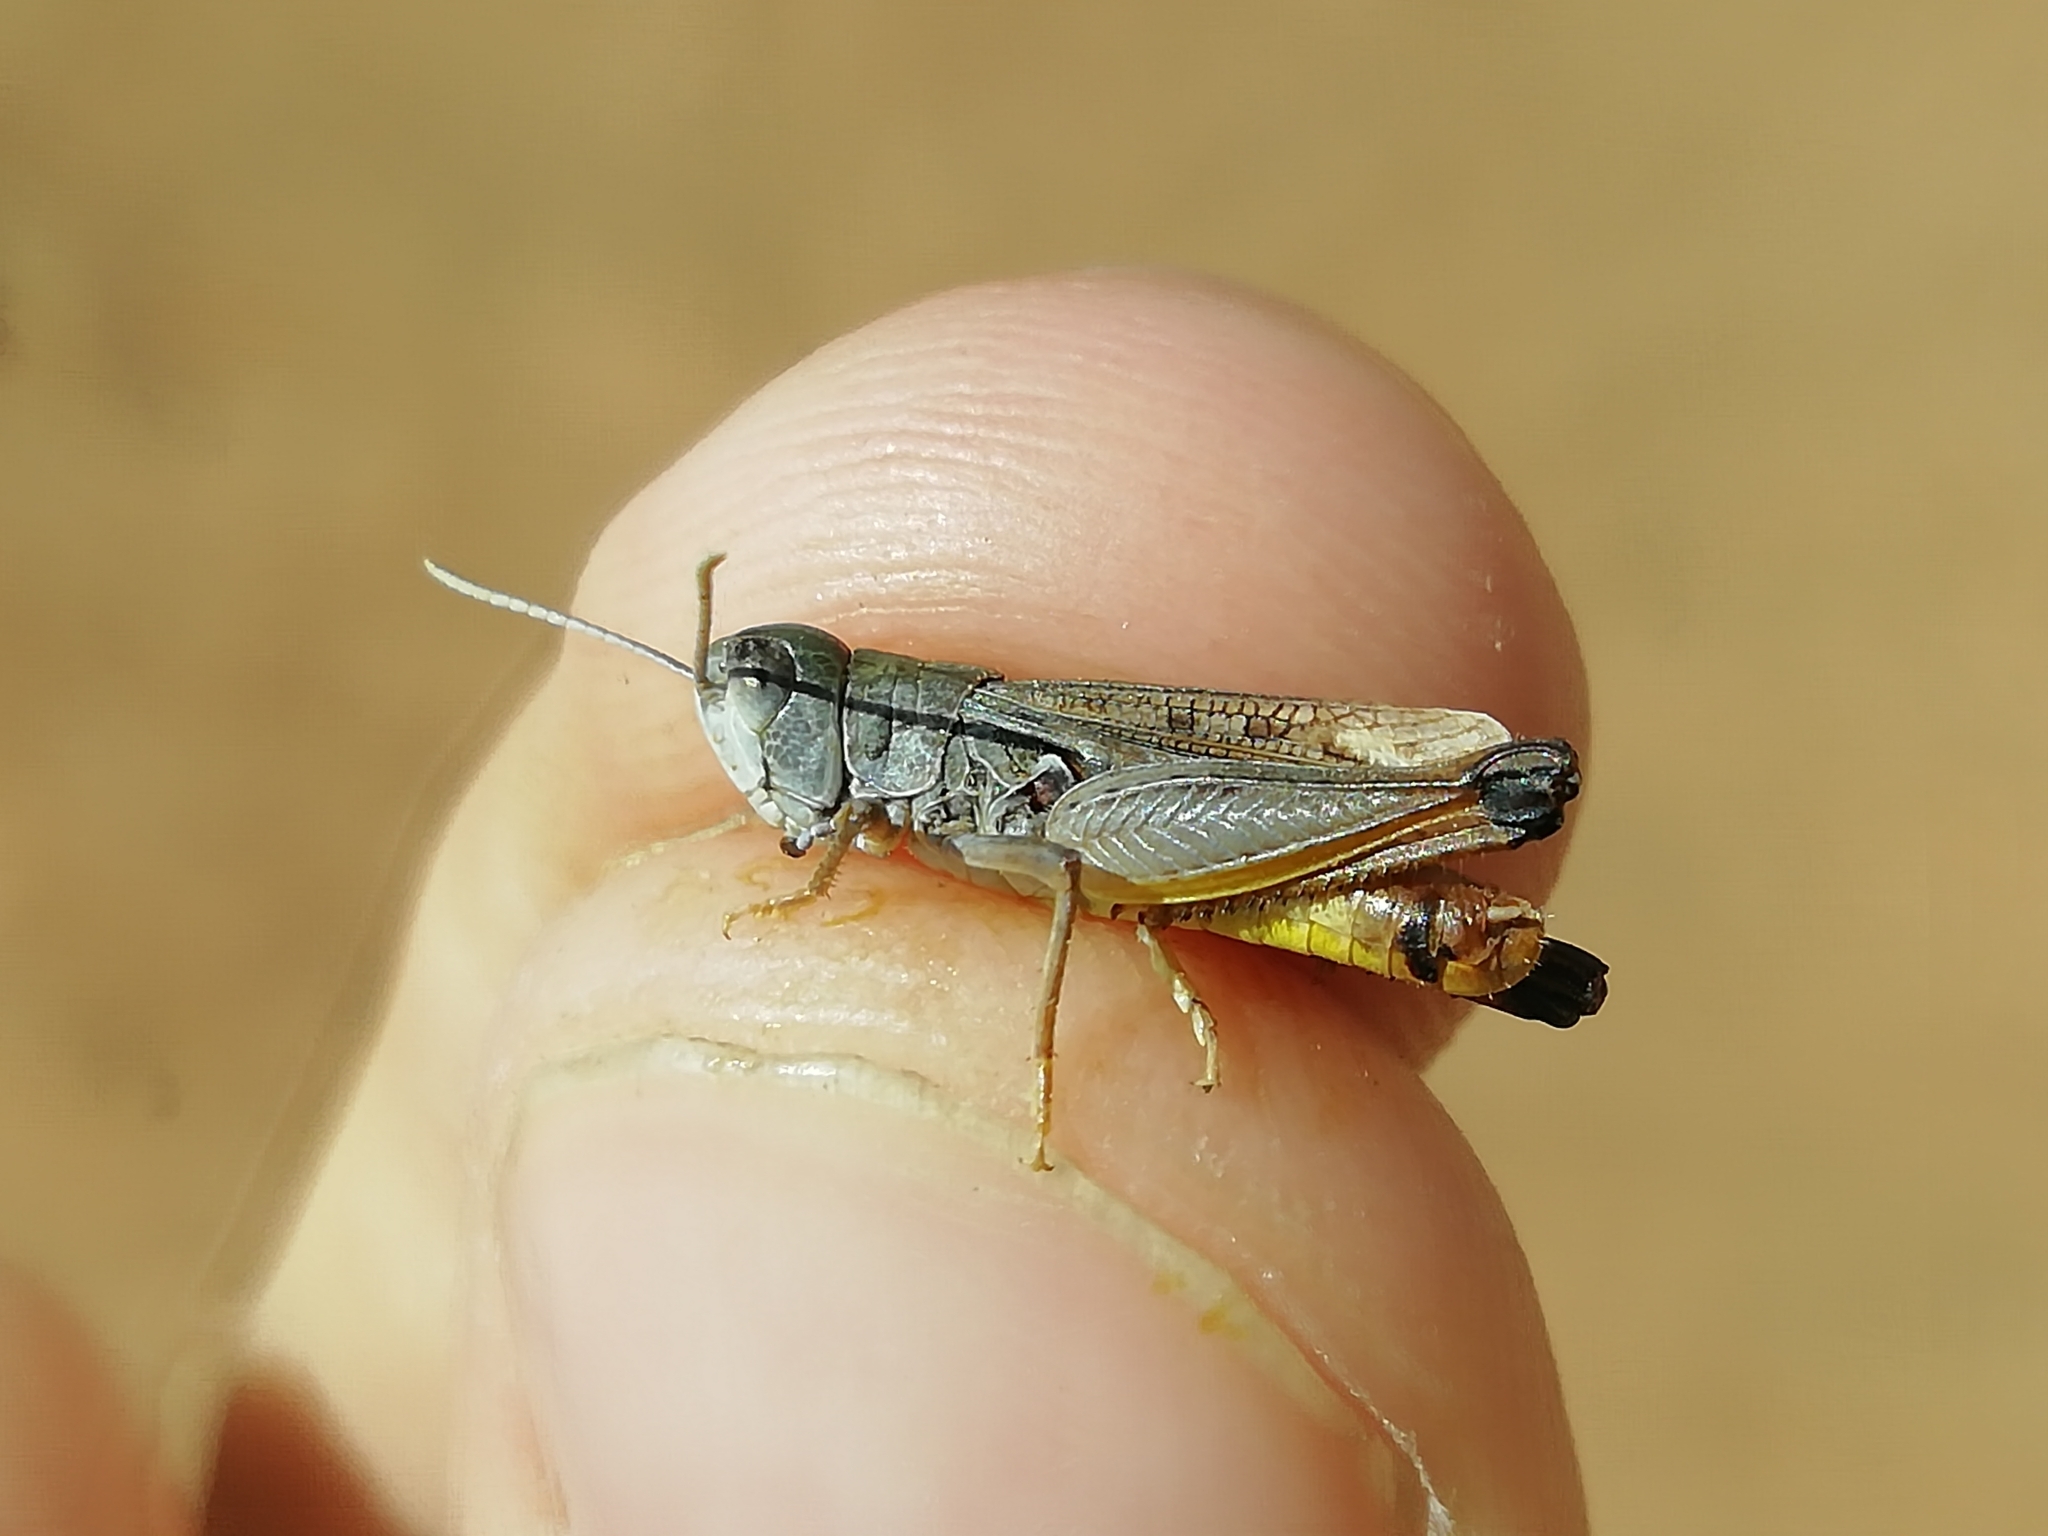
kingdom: Animalia
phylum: Arthropoda
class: Insecta
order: Orthoptera
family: Acrididae
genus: Myrmeleotettix
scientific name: Myrmeleotettix palpalis
